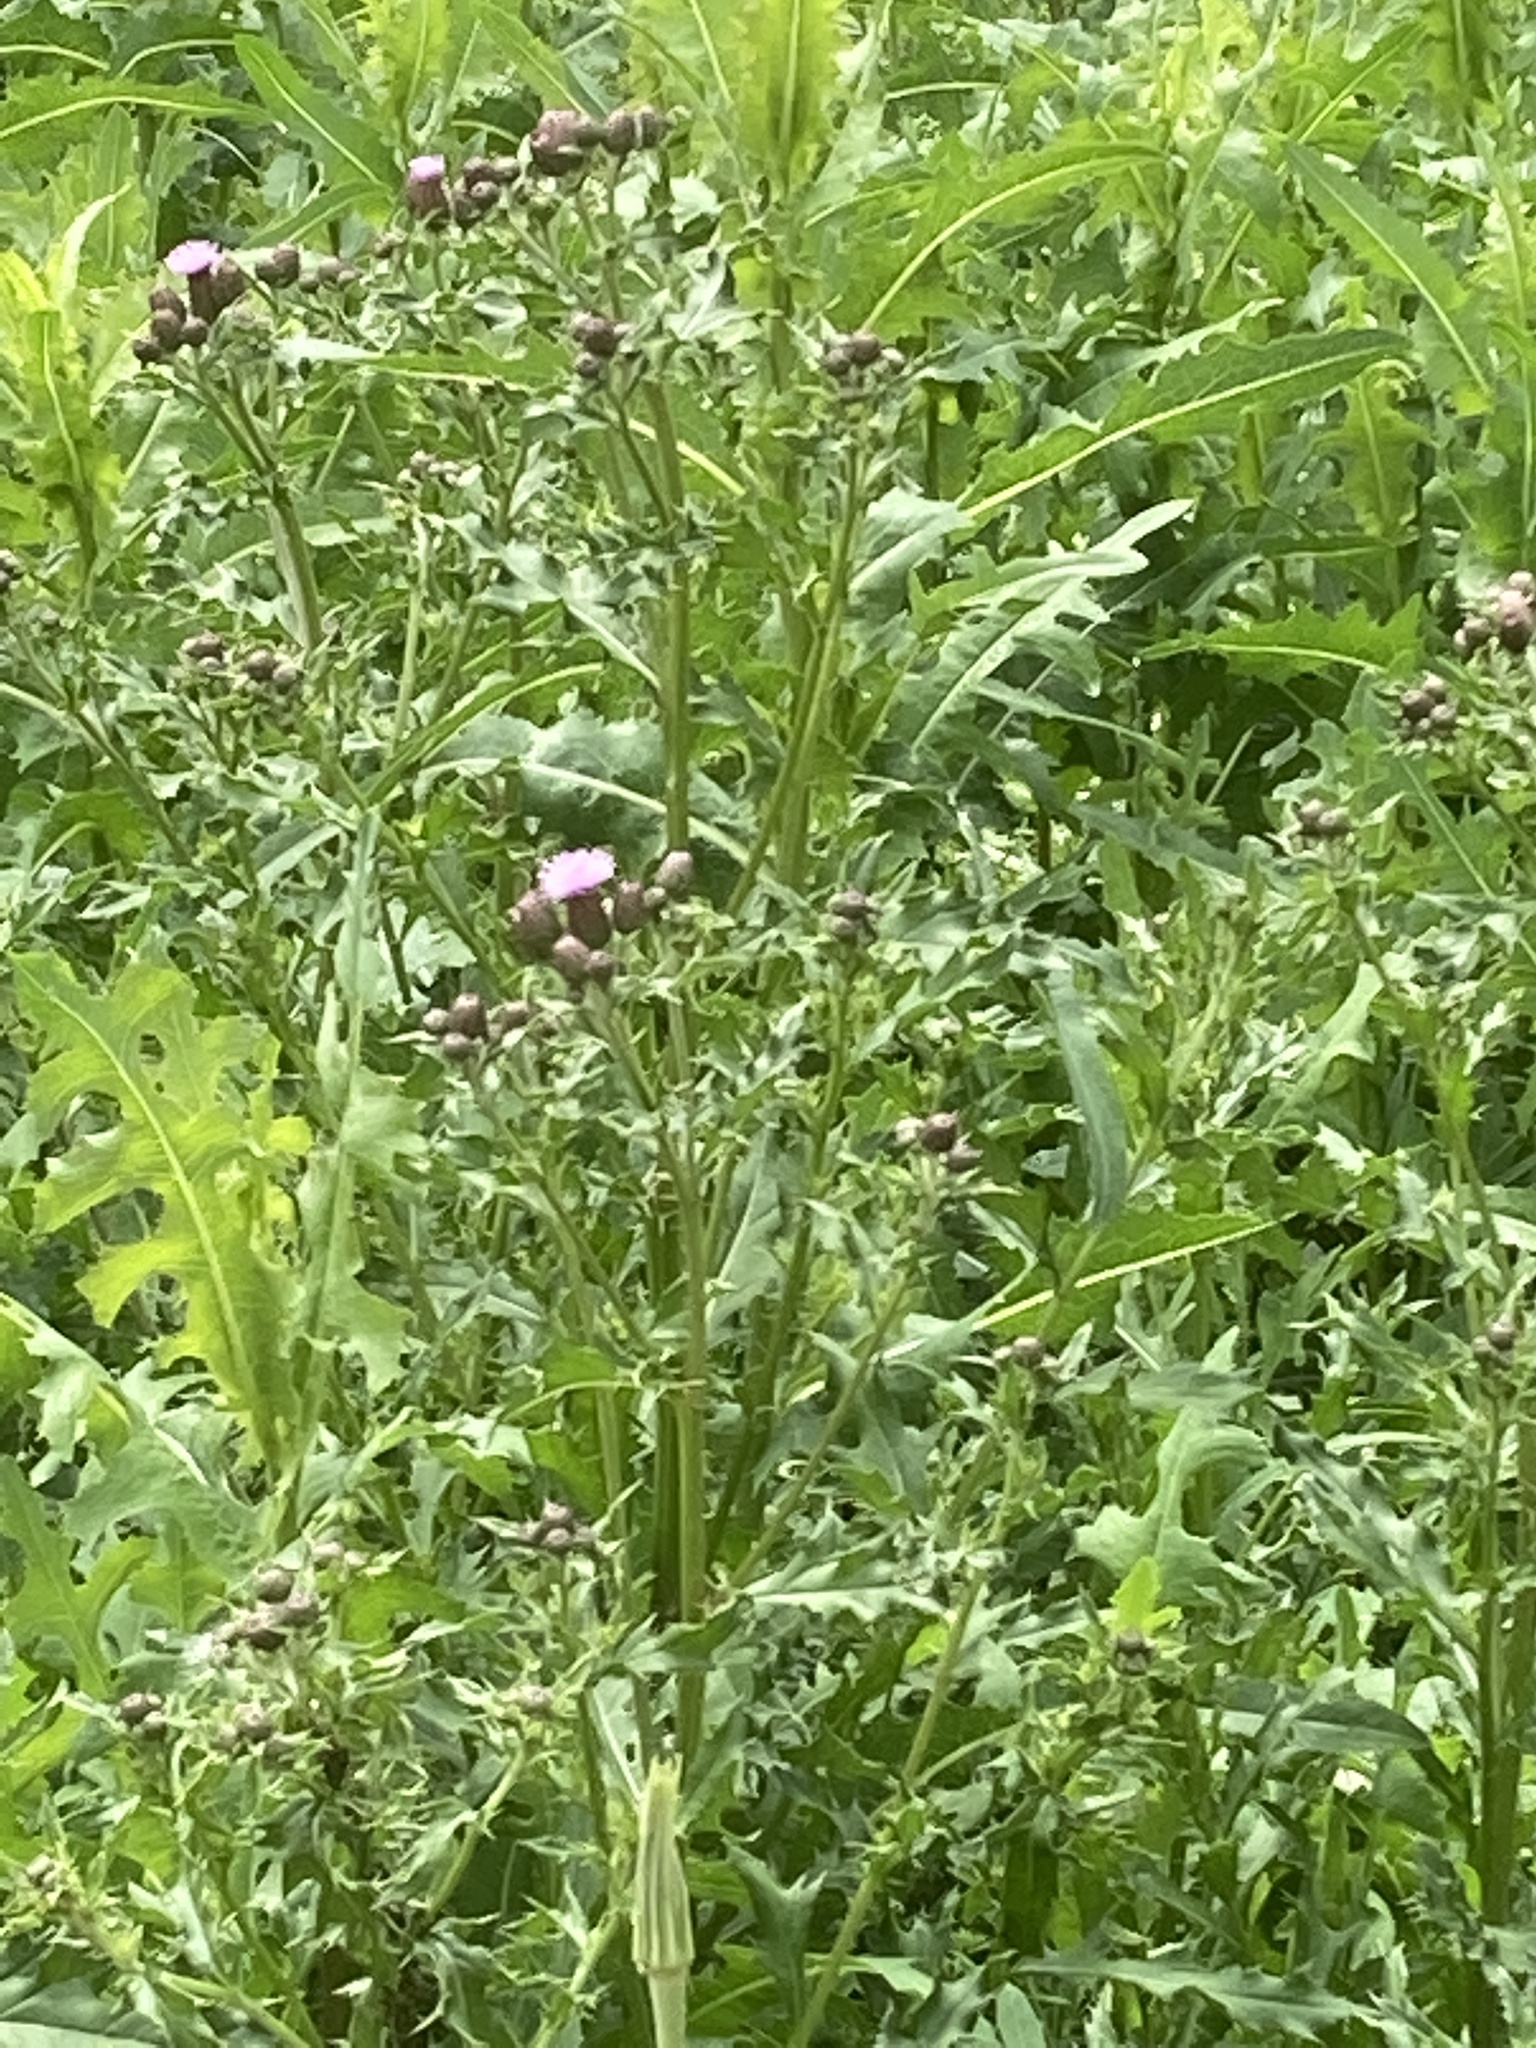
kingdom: Plantae
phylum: Tracheophyta
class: Magnoliopsida
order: Asterales
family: Asteraceae
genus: Cirsium
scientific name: Cirsium arvense
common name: Creeping thistle
